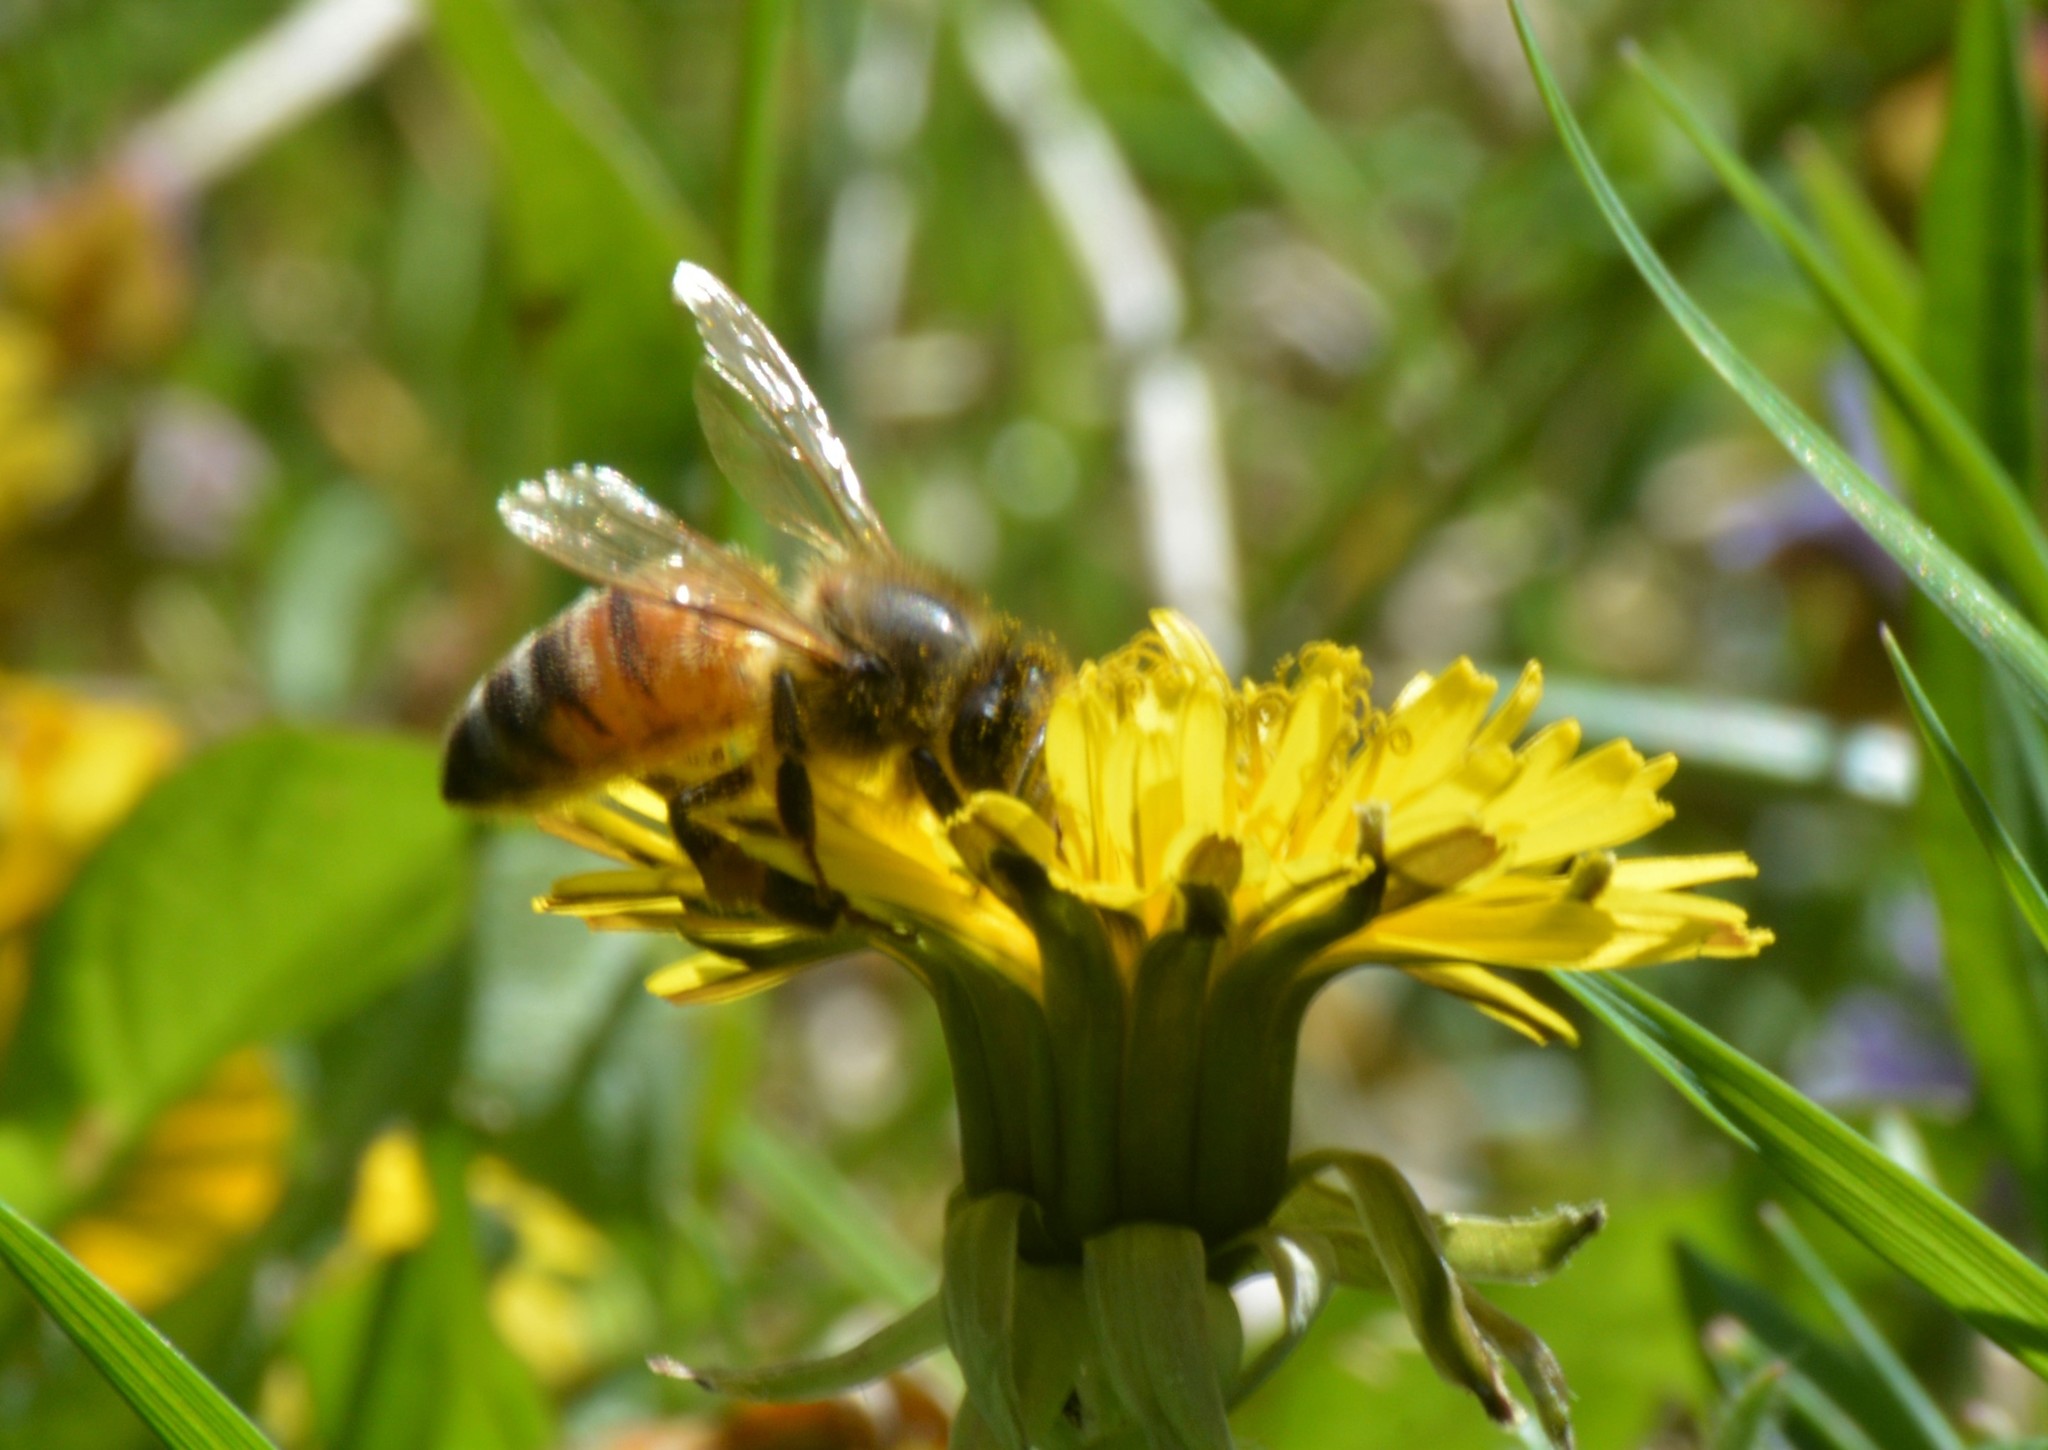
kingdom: Animalia
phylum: Arthropoda
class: Insecta
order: Hymenoptera
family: Apidae
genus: Apis
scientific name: Apis mellifera
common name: Honey bee
